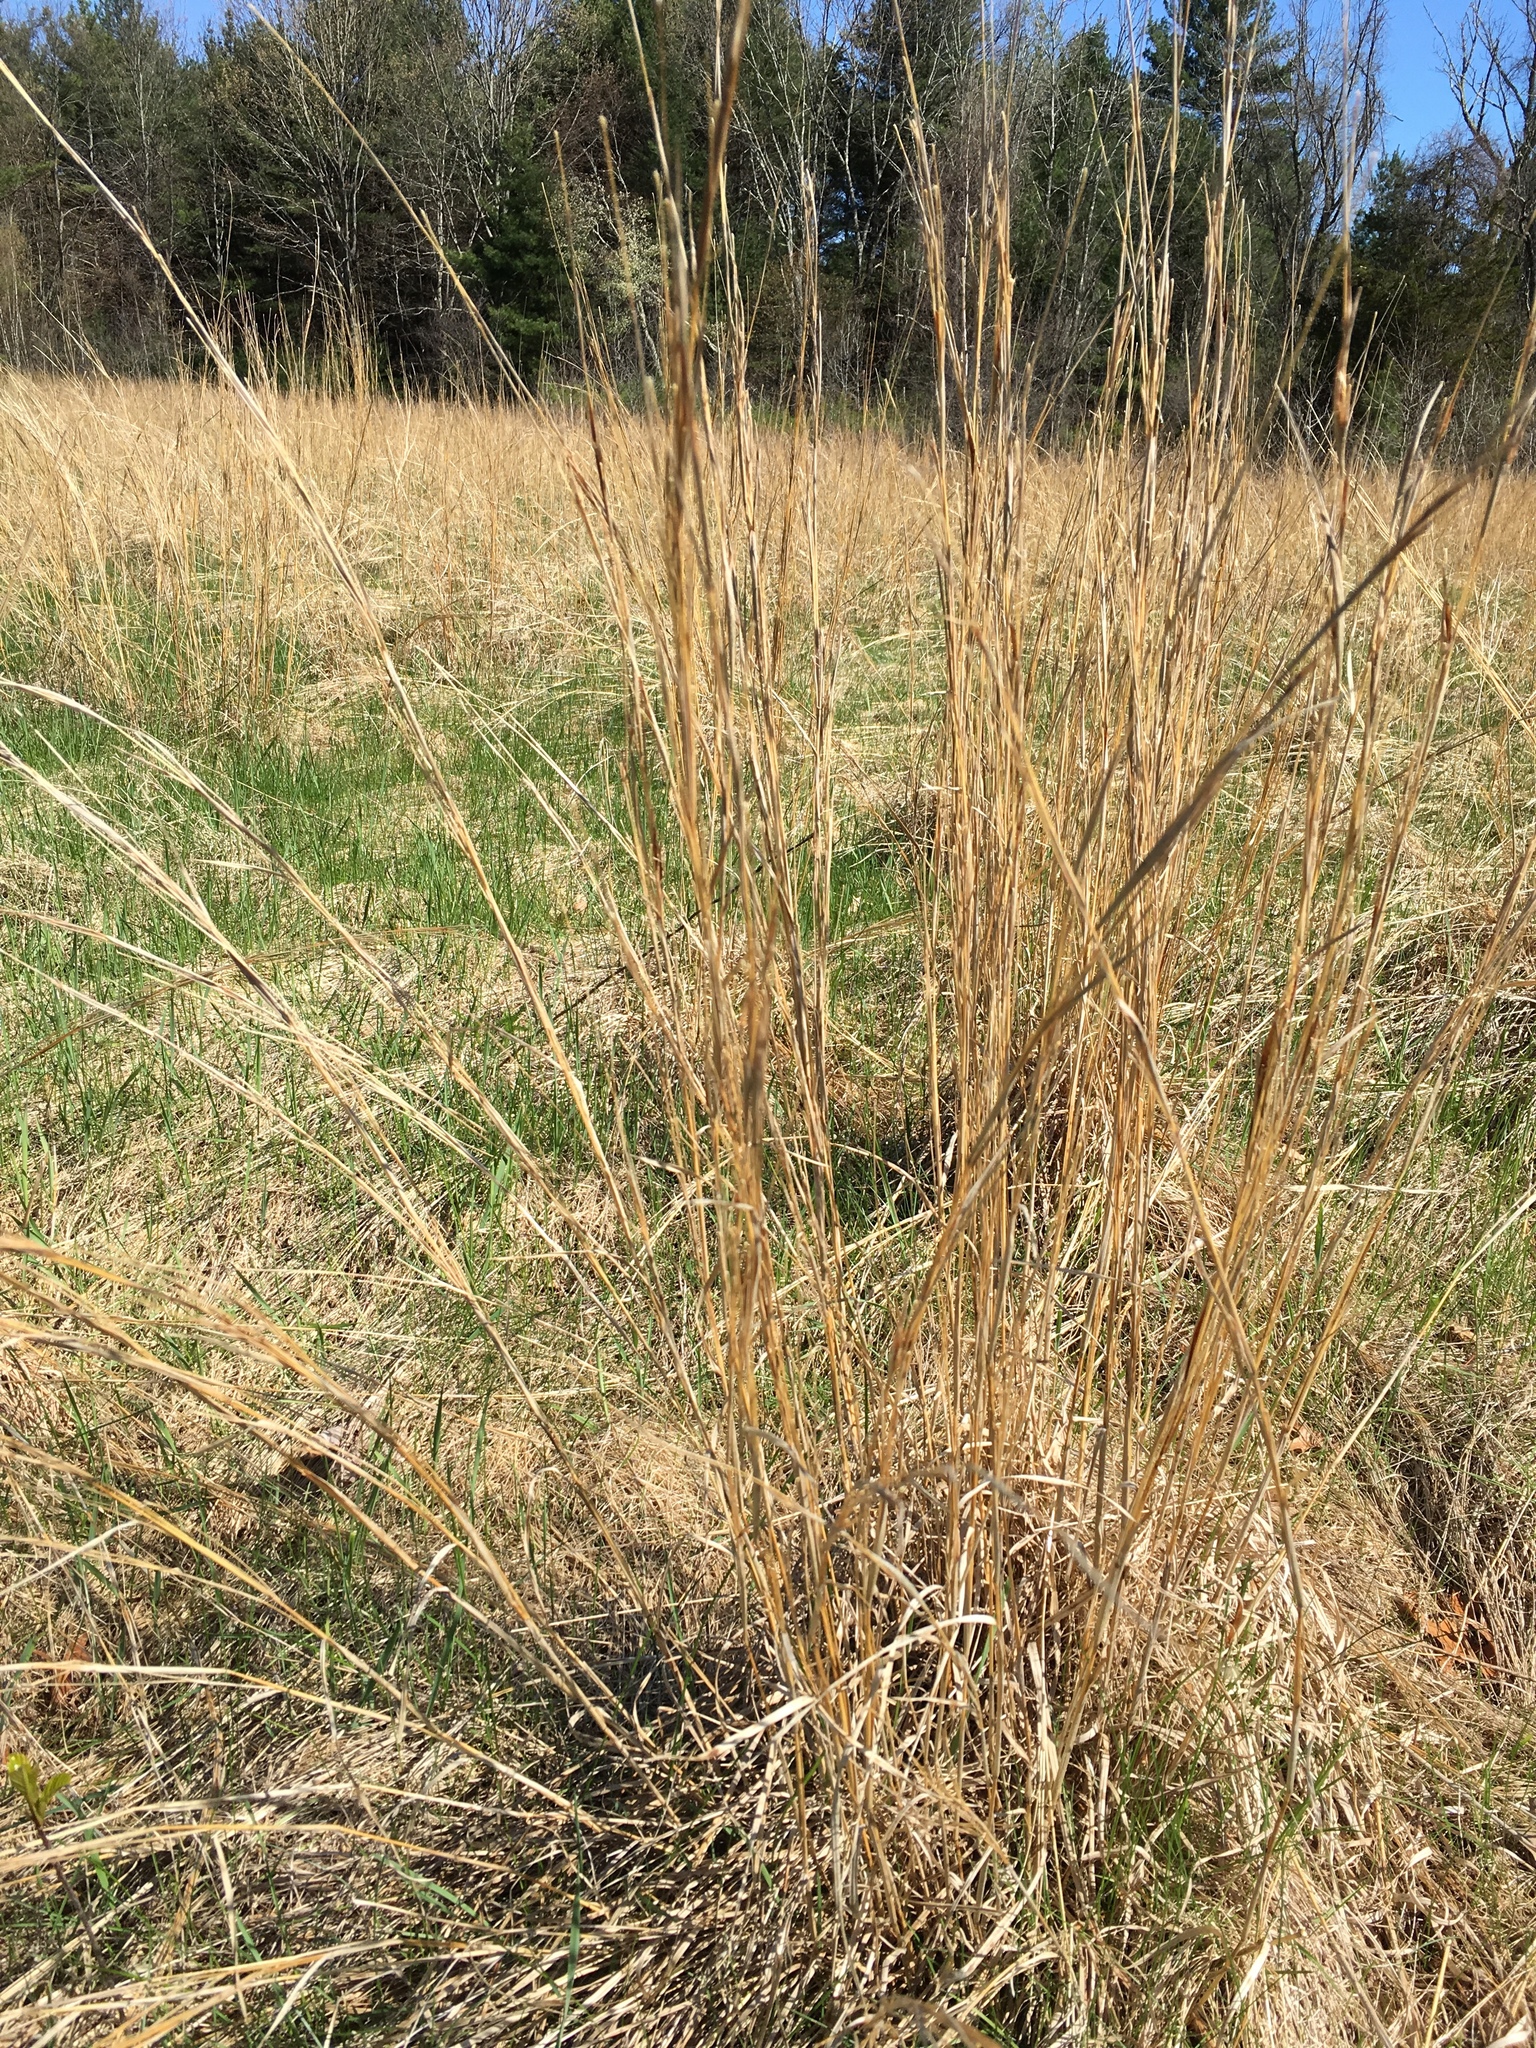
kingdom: Plantae
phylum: Tracheophyta
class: Liliopsida
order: Poales
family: Poaceae
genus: Schizachyrium
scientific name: Schizachyrium scoparium
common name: Little bluestem
